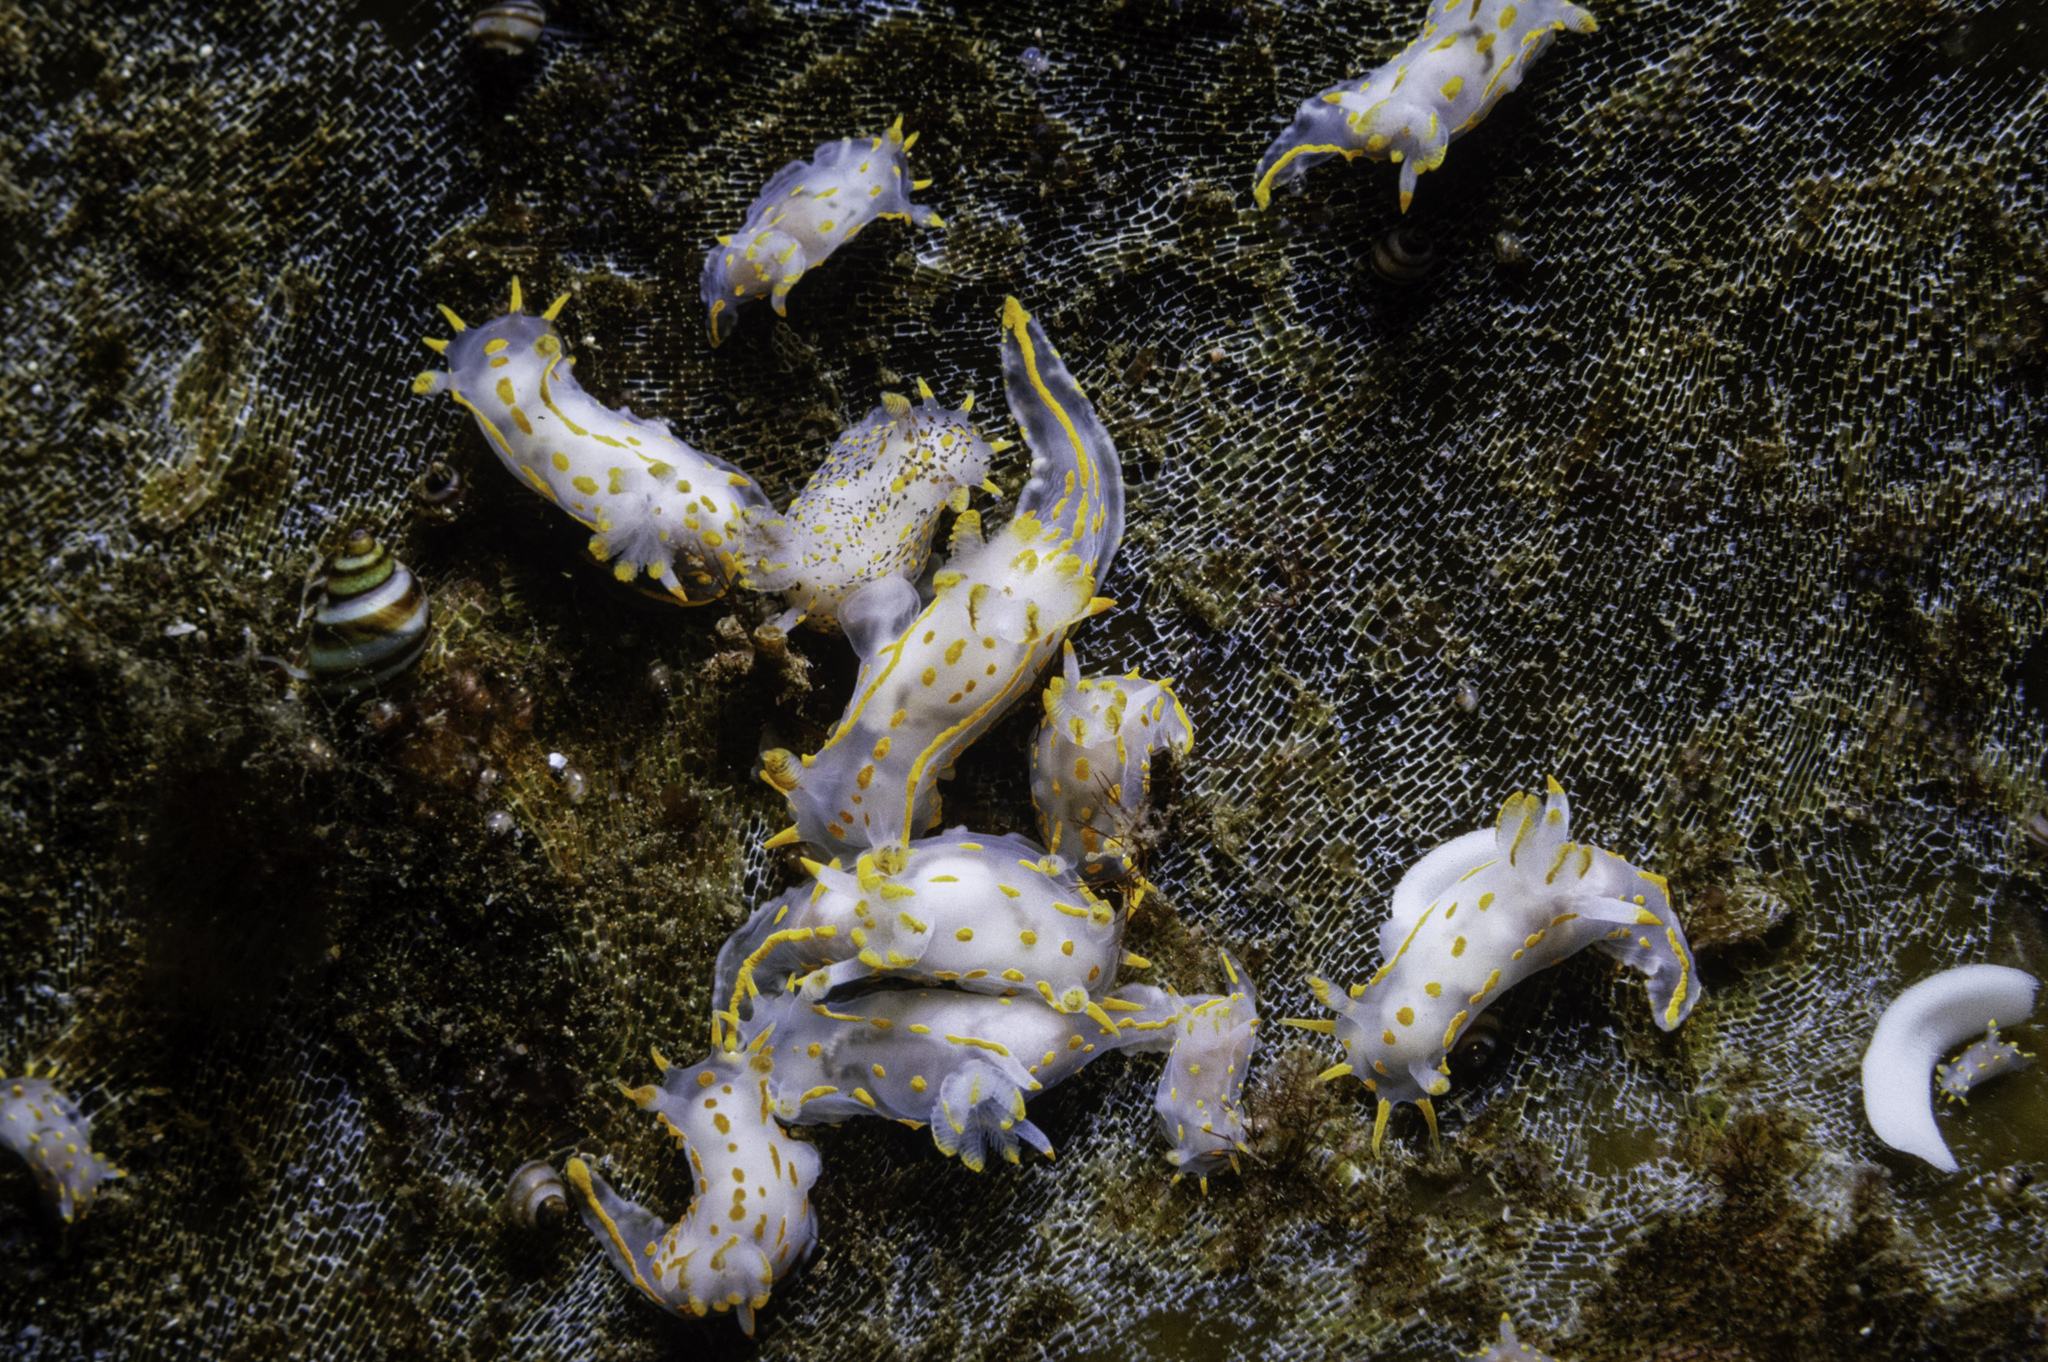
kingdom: Animalia
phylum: Mollusca
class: Gastropoda
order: Nudibranchia
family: Polyceridae
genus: Polycera
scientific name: Polycera norvegica
